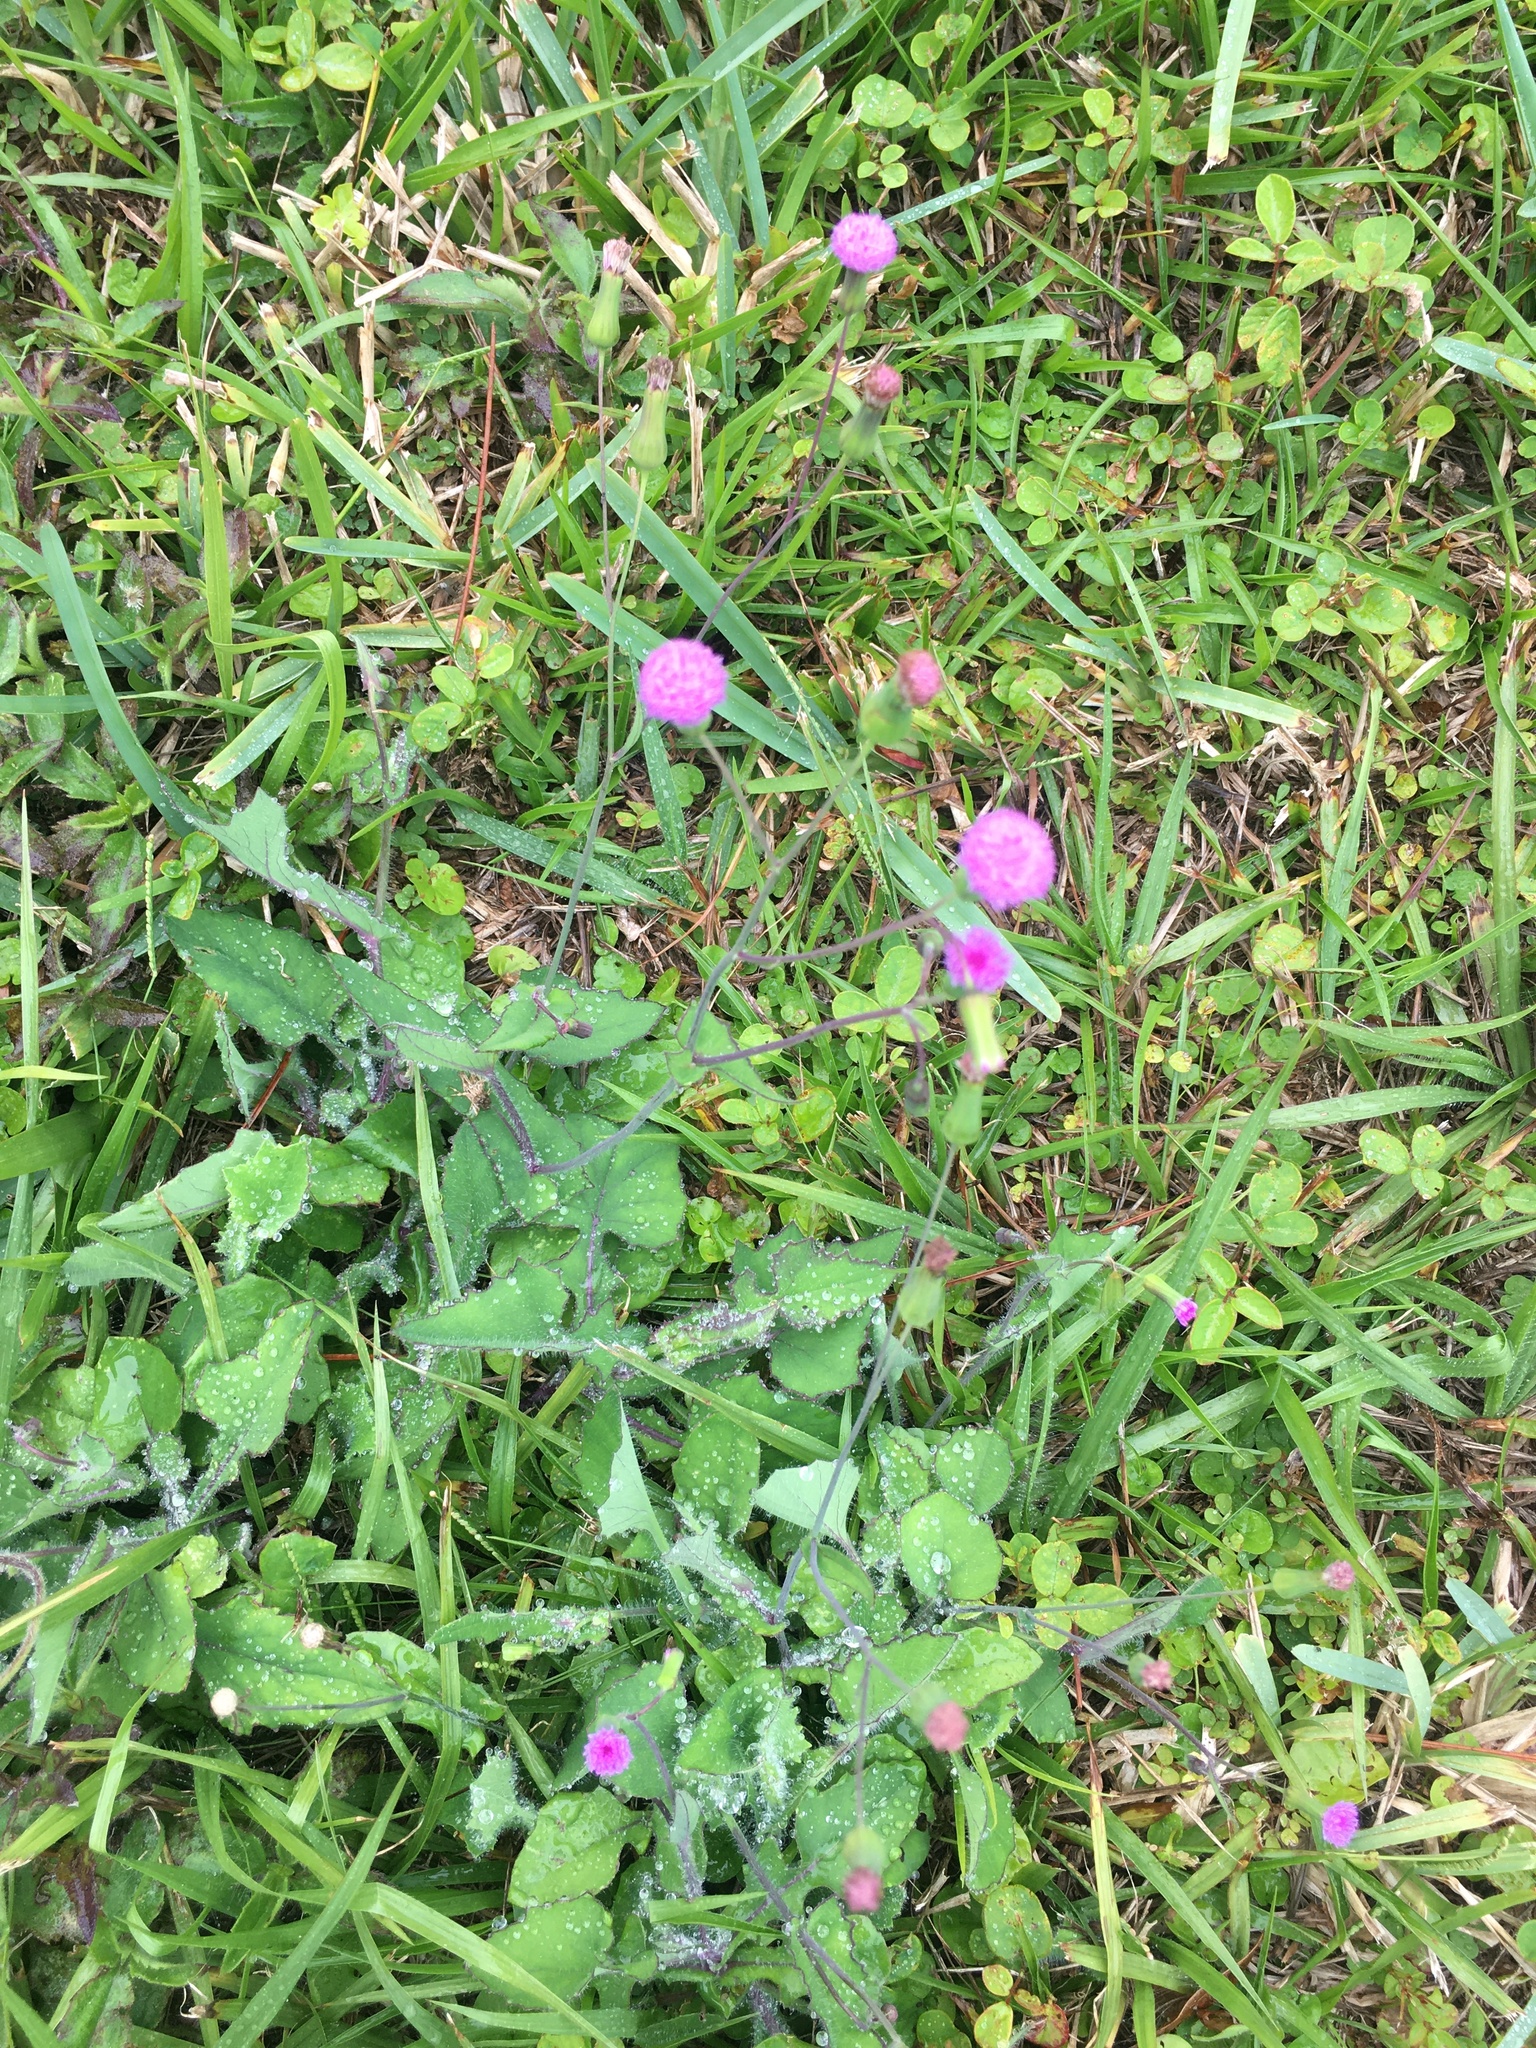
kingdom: Plantae
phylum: Tracheophyta
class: Magnoliopsida
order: Asterales
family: Asteraceae
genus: Emilia
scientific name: Emilia sonchifolia
